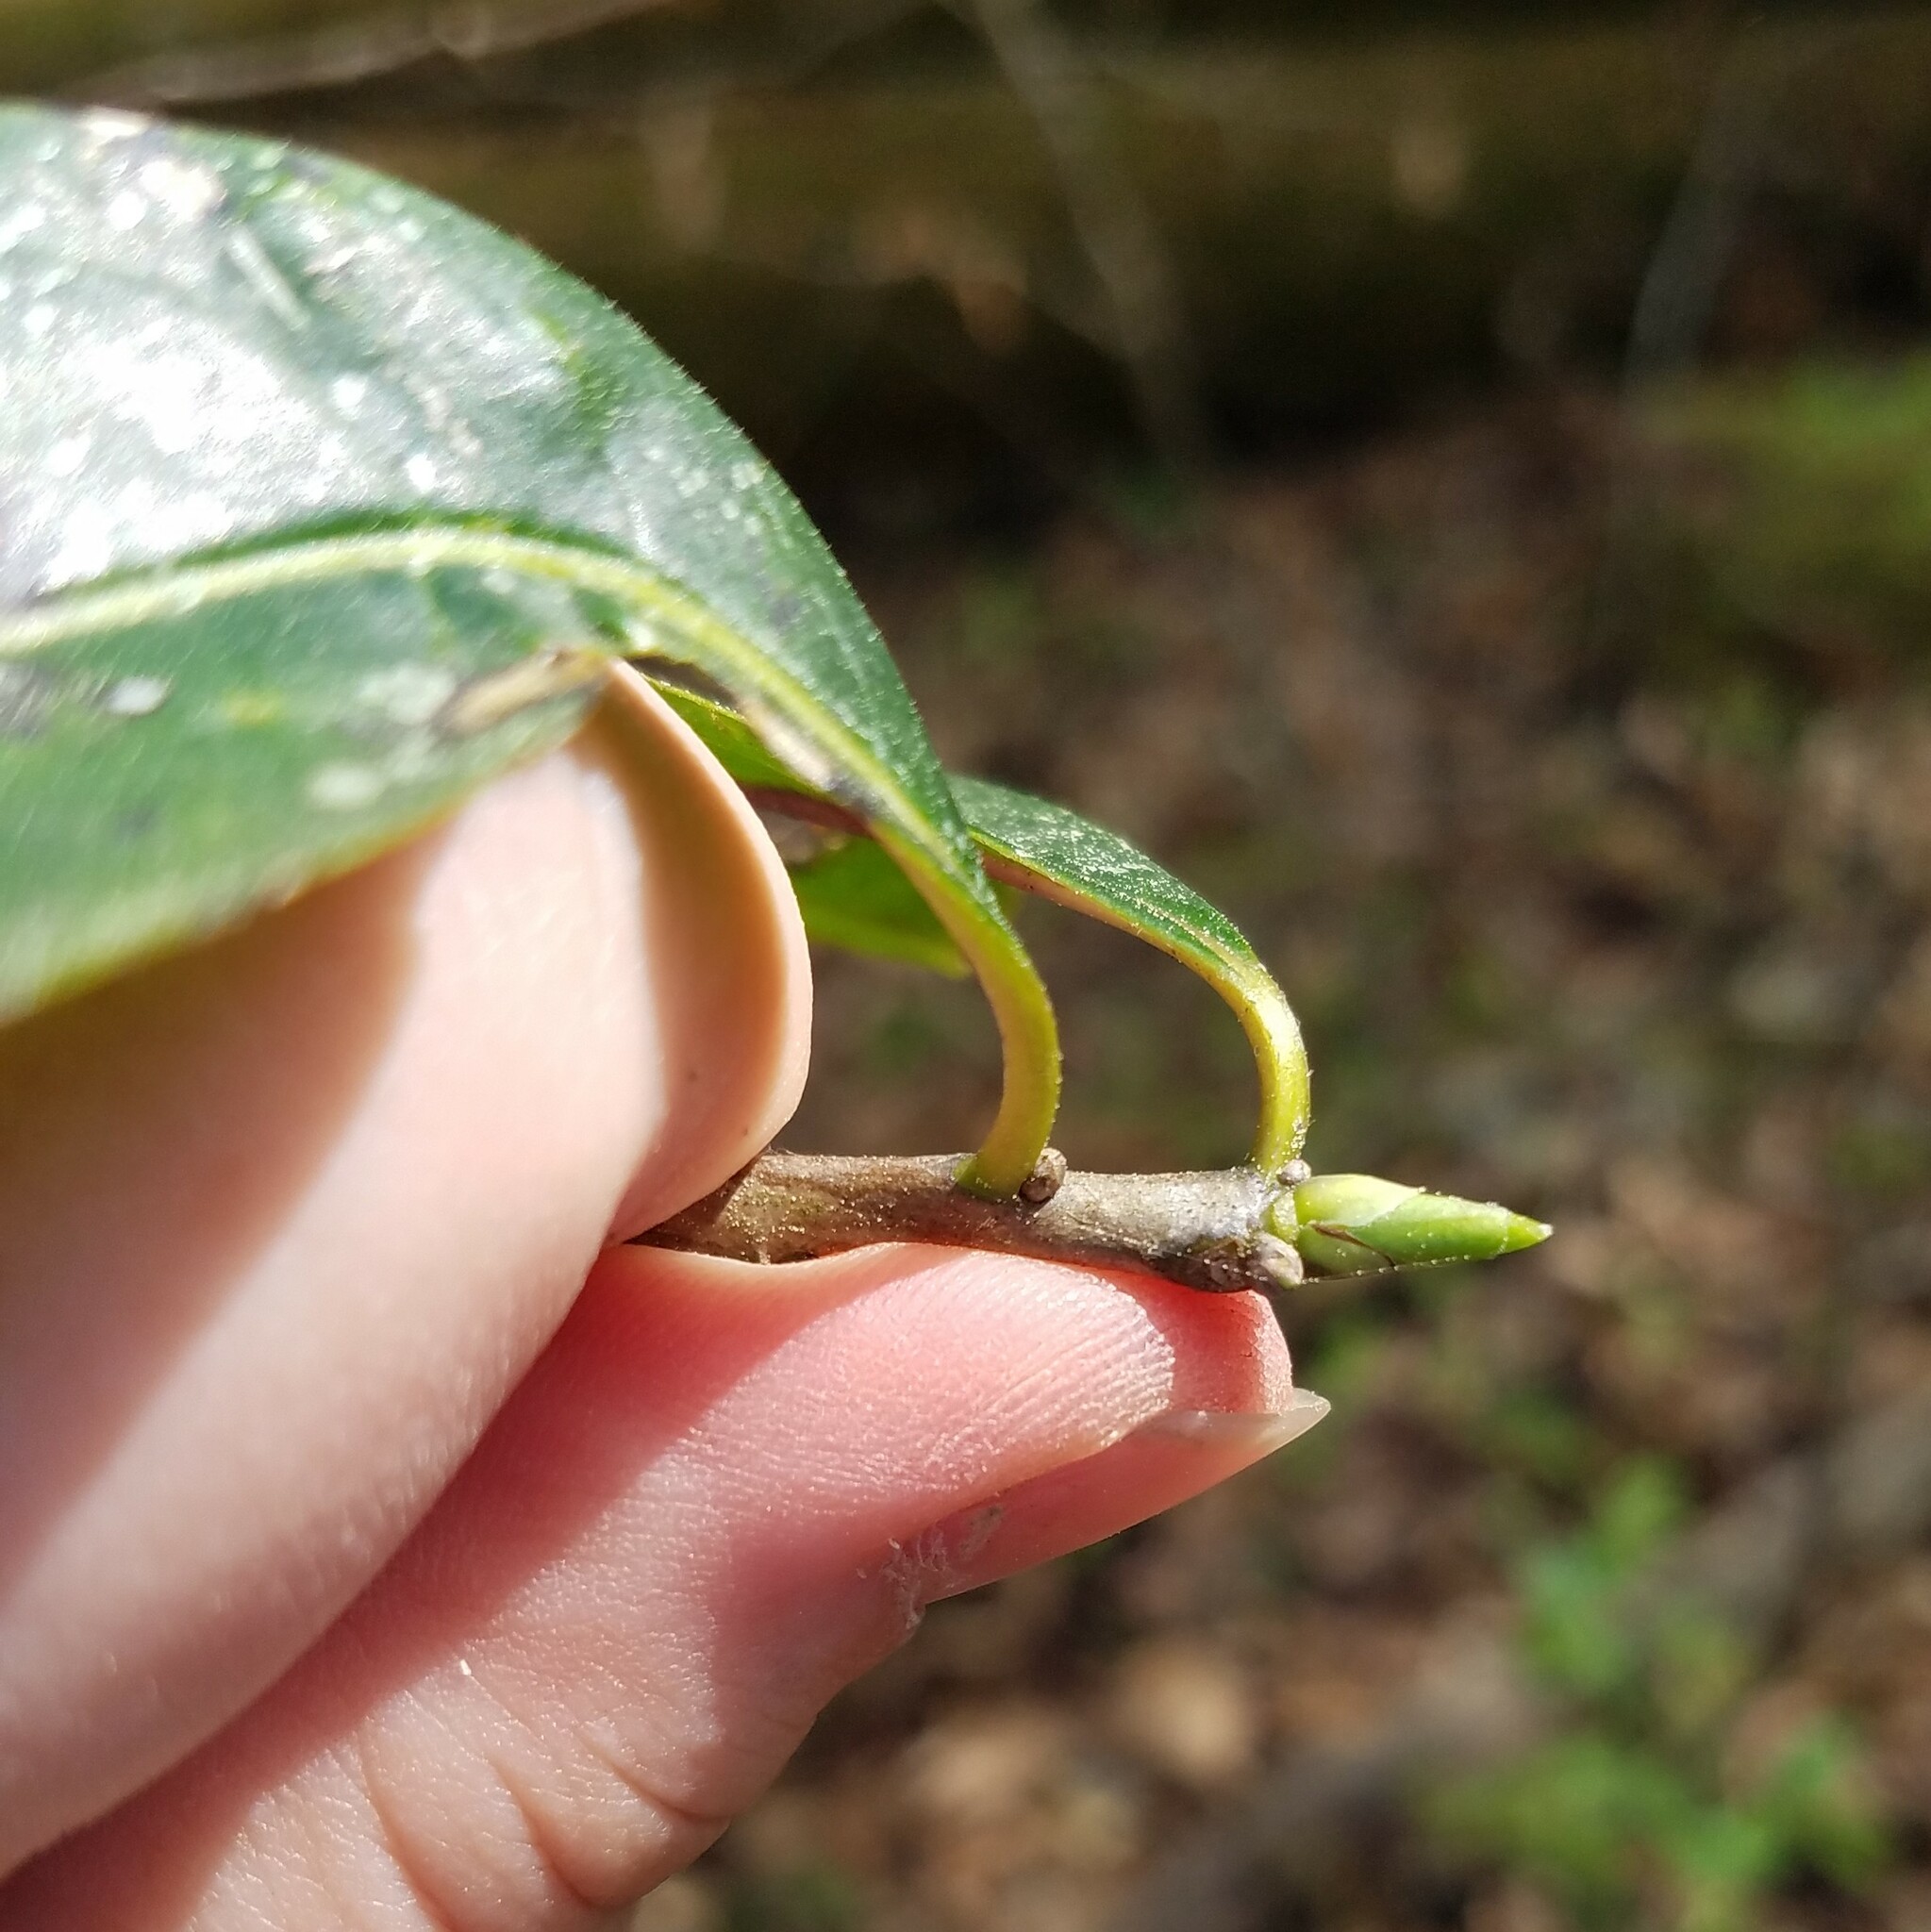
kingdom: Plantae
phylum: Tracheophyta
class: Magnoliopsida
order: Ericales
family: Symplocaceae
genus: Symplocos
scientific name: Symplocos tinctoria
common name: Horse-sugar
